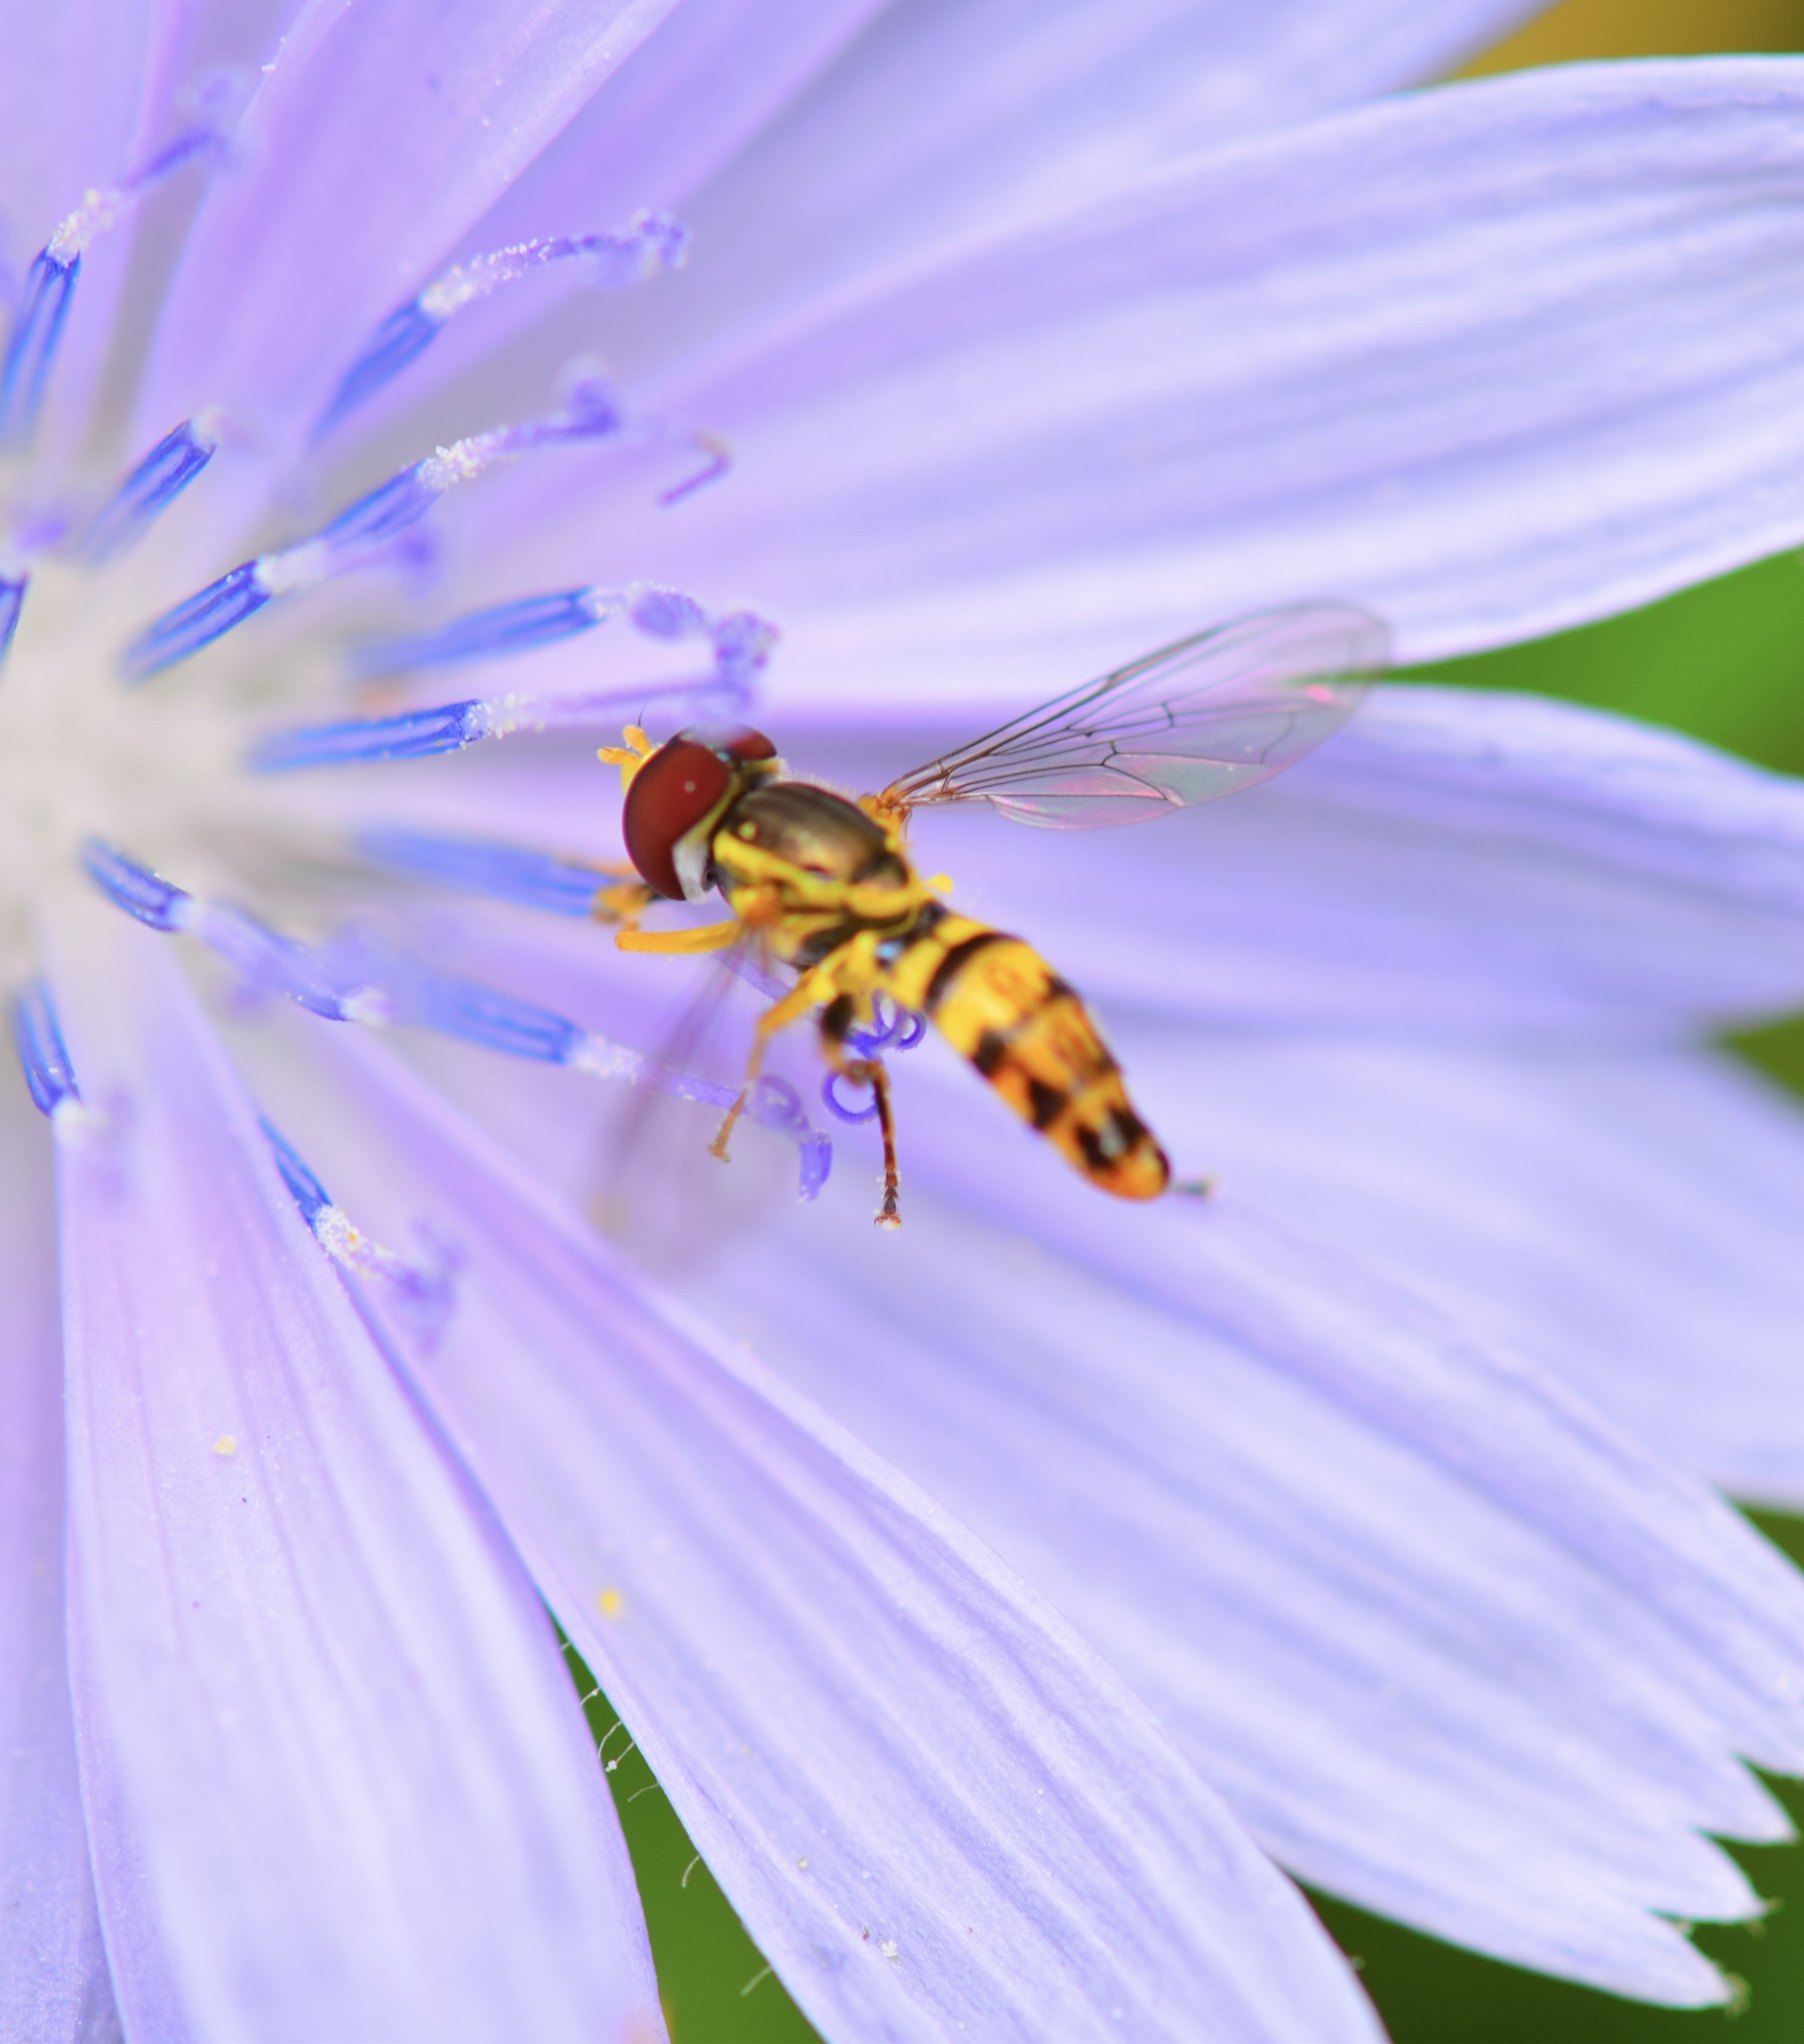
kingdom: Animalia
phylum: Arthropoda
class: Insecta
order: Diptera
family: Syrphidae
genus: Toxomerus
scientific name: Toxomerus geminatus
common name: Eastern calligrapher
